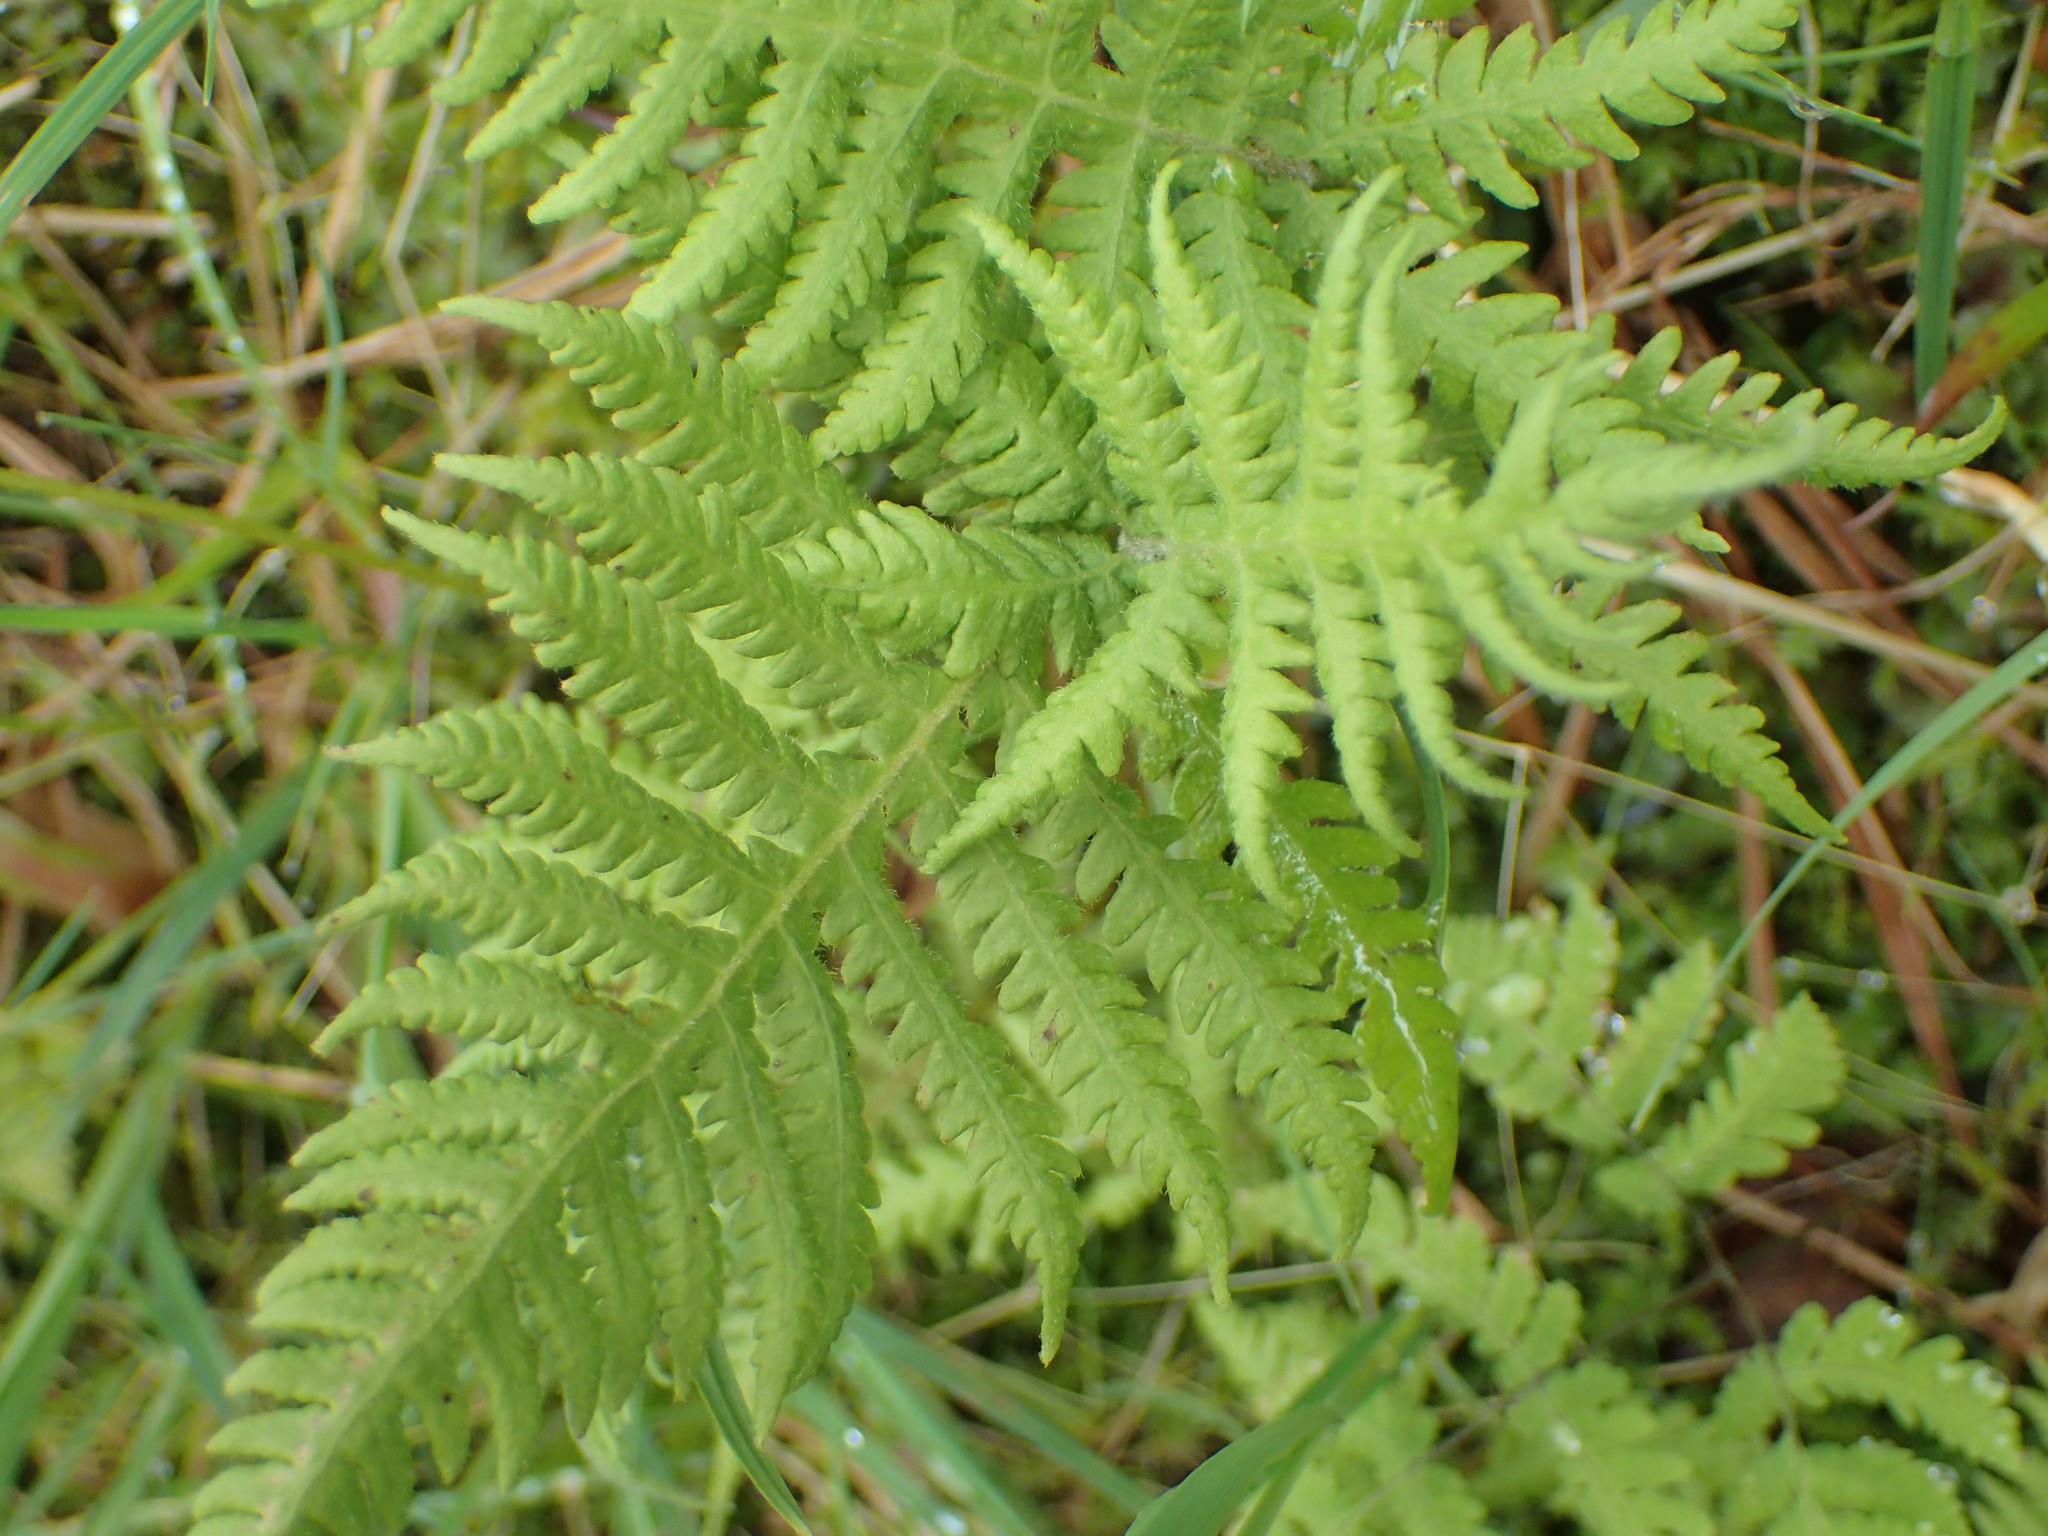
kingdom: Plantae
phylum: Tracheophyta
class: Polypodiopsida
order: Polypodiales
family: Thelypteridaceae
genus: Phegopteris
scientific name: Phegopteris connectilis
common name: Beech fern
